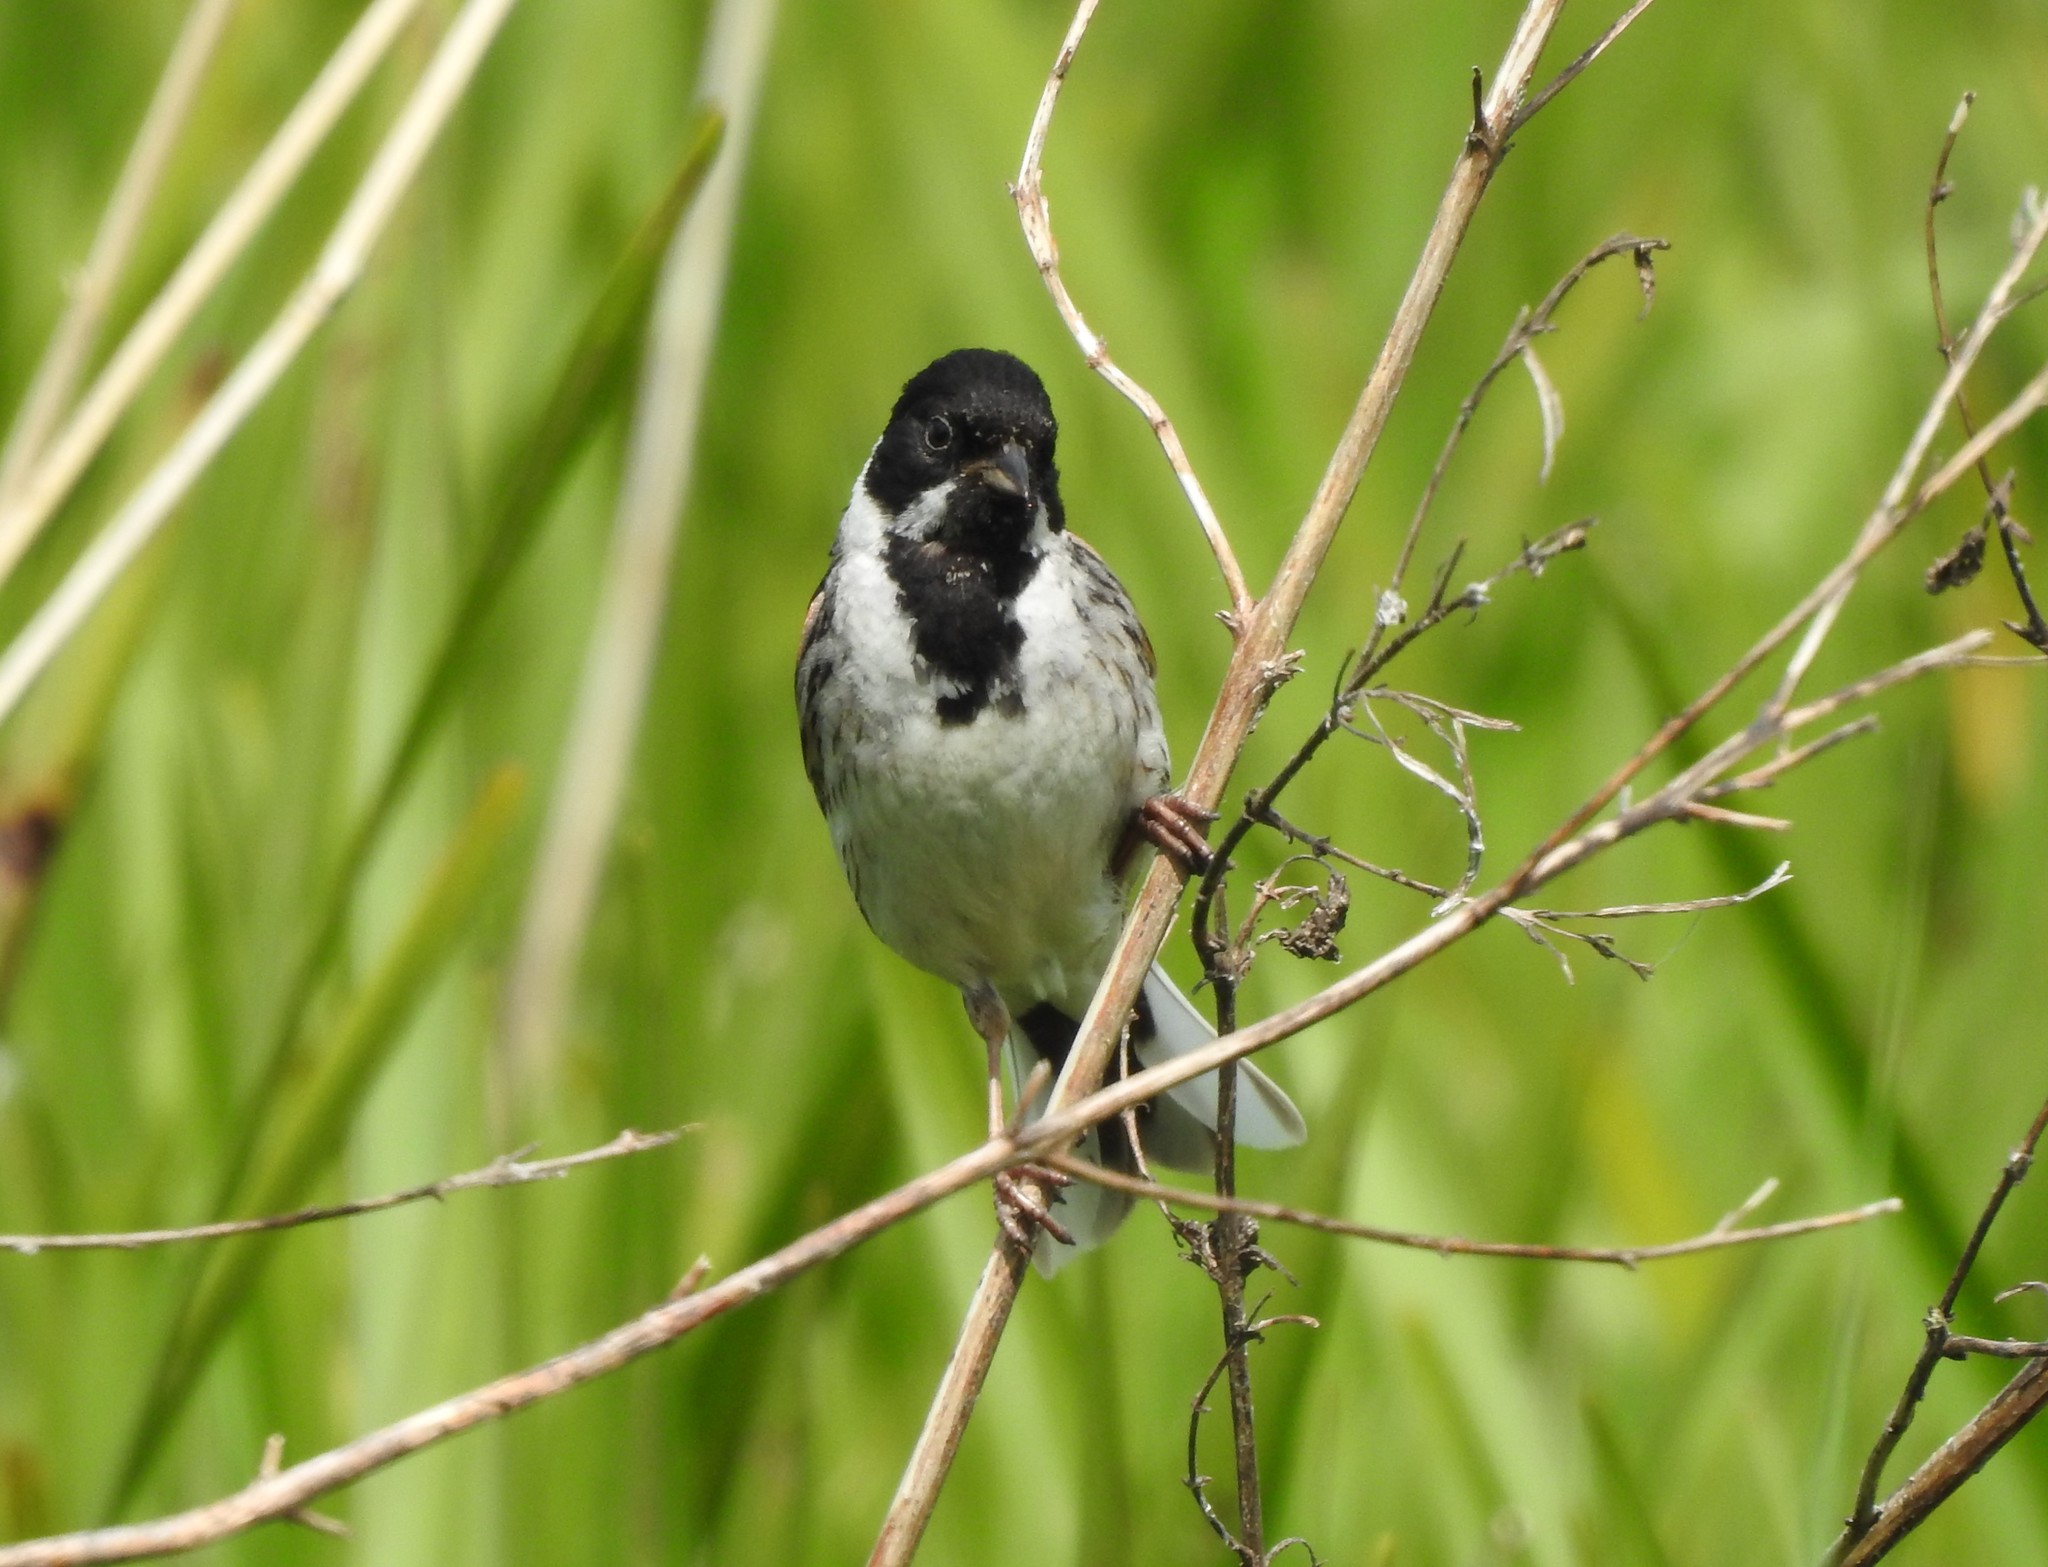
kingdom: Animalia
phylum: Chordata
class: Aves
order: Passeriformes
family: Emberizidae
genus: Emberiza
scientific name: Emberiza schoeniclus
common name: Reed bunting
